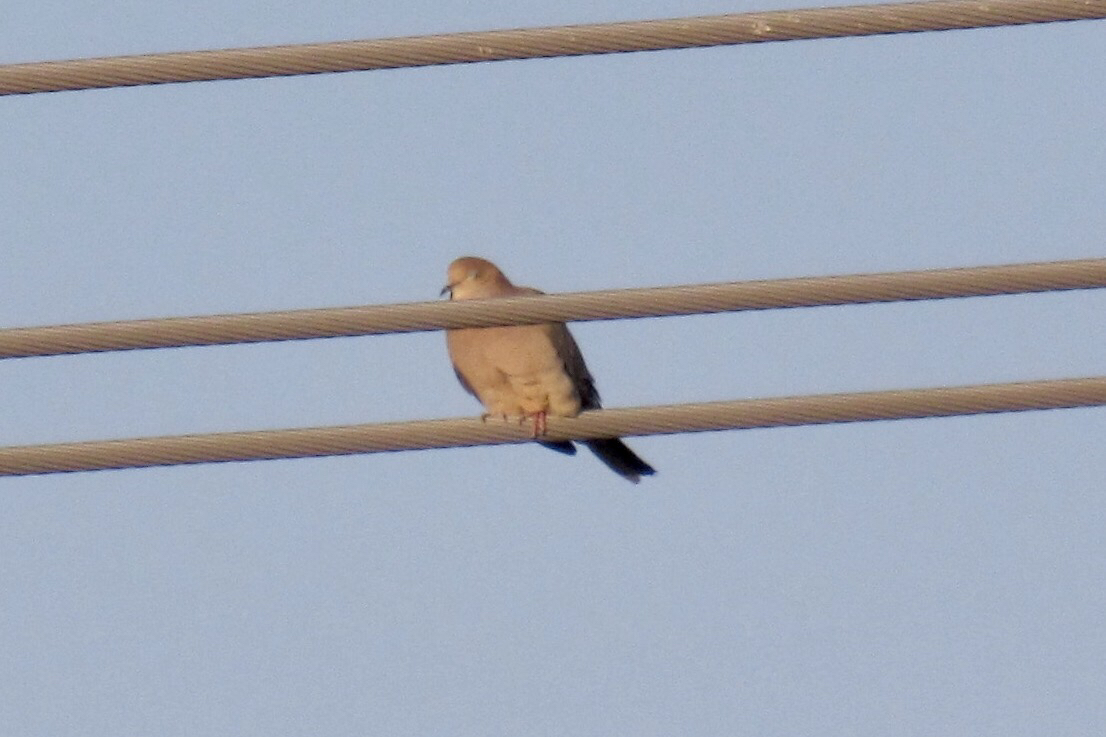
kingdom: Animalia
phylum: Chordata
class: Aves
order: Columbiformes
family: Columbidae
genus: Zenaida
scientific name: Zenaida macroura
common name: Mourning dove
